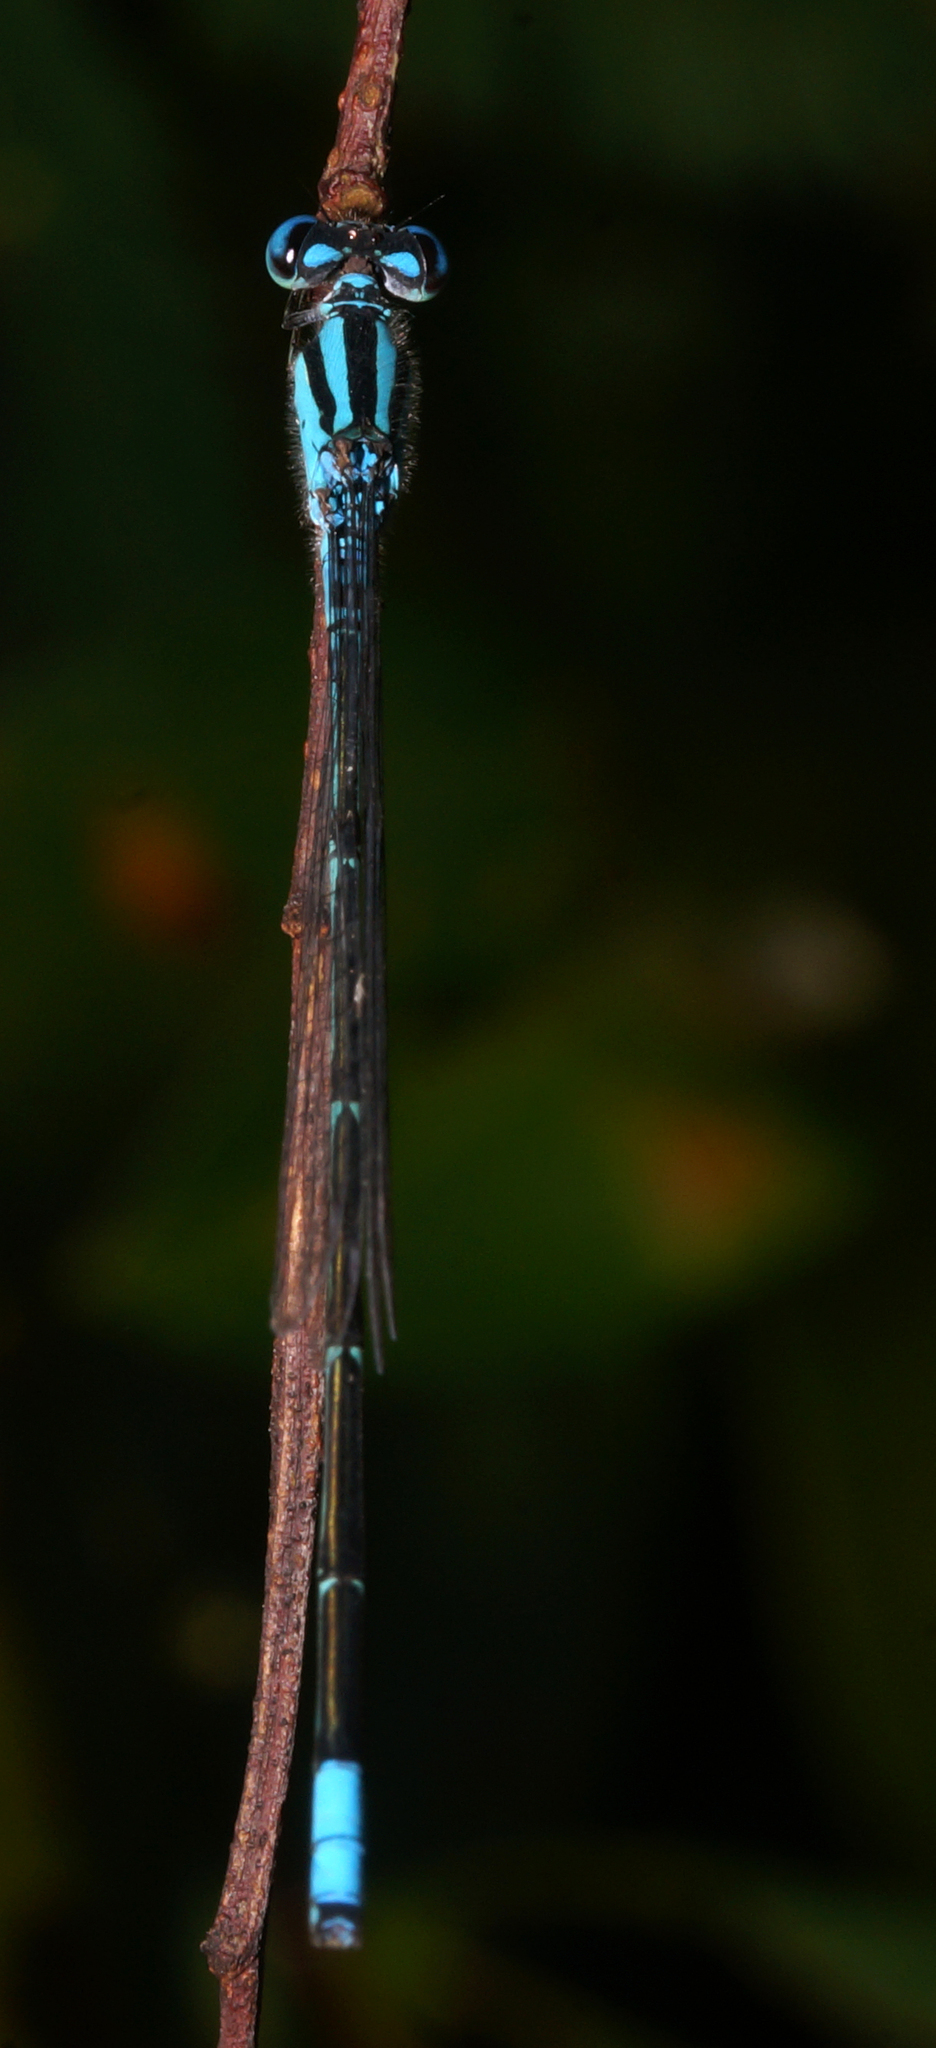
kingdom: Animalia
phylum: Arthropoda
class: Insecta
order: Odonata
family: Coenagrionidae
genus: Pseudagrion
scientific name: Pseudagrion australasiae
